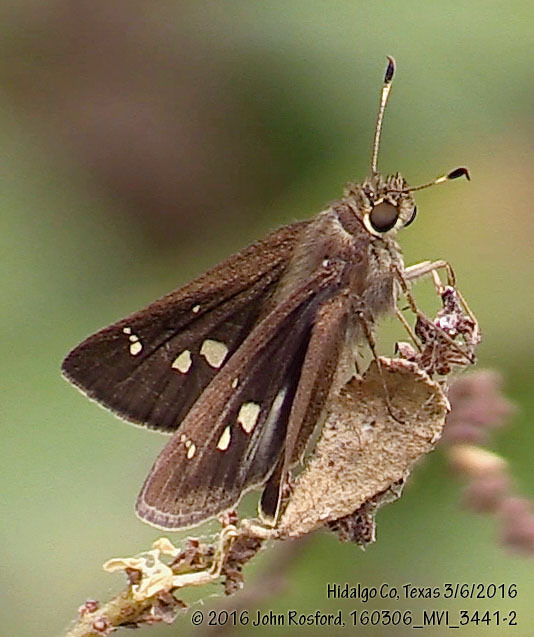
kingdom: Animalia
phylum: Arthropoda
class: Insecta
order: Lepidoptera
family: Hesperiidae
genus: Decinea
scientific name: Decinea percosius
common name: Double-dotted skipper
